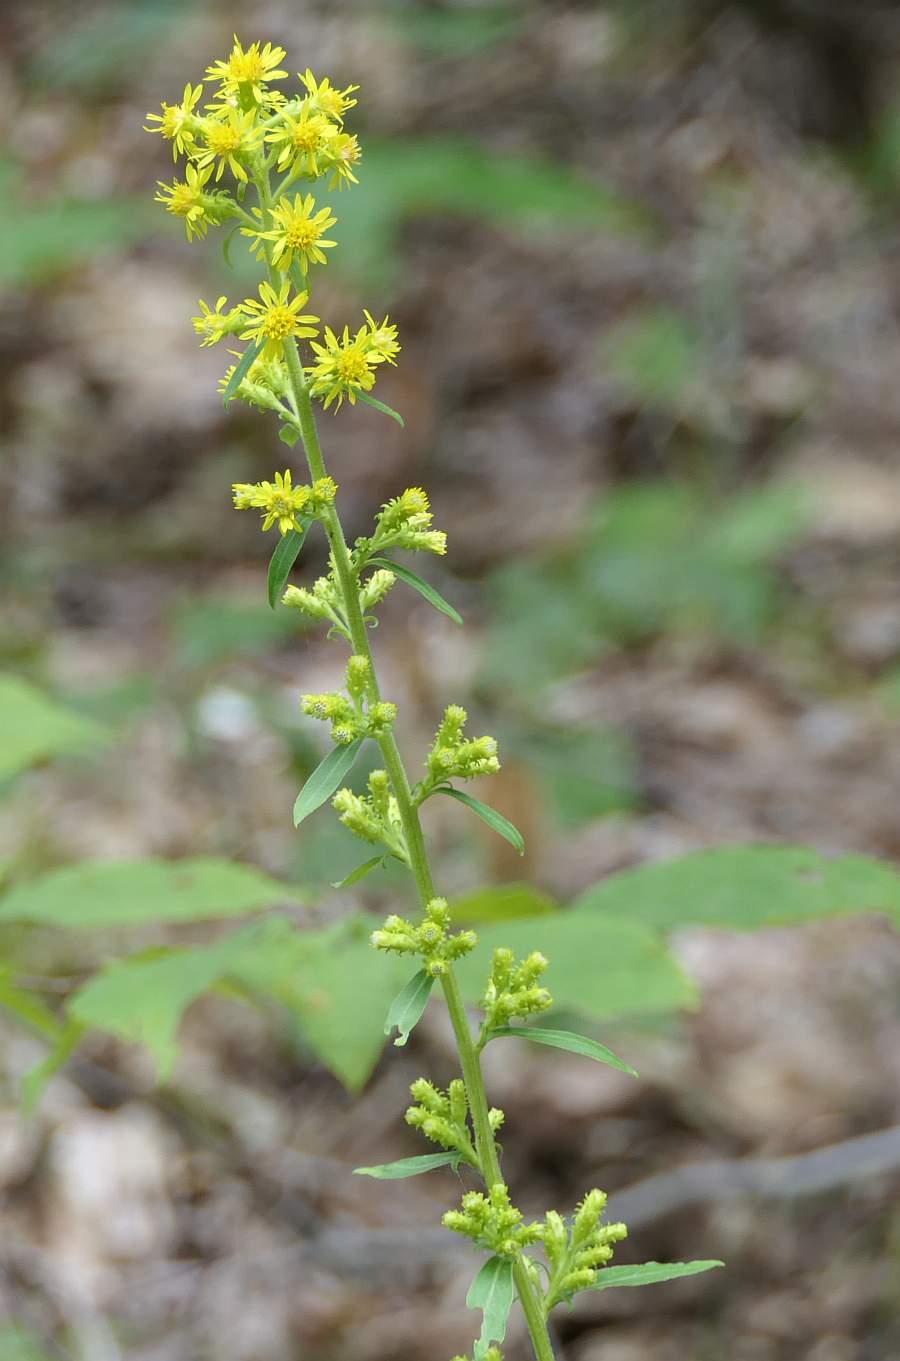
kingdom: Plantae
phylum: Tracheophyta
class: Magnoliopsida
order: Asterales
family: Asteraceae
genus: Solidago
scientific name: Solidago squarrosa
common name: Stout goldenrod
